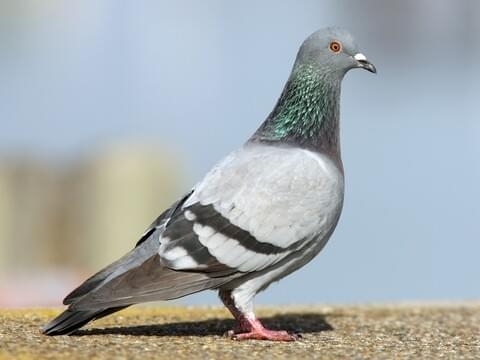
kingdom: Animalia
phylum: Chordata
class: Aves
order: Columbiformes
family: Columbidae
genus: Columba
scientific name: Columba livia
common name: Rock pigeon
